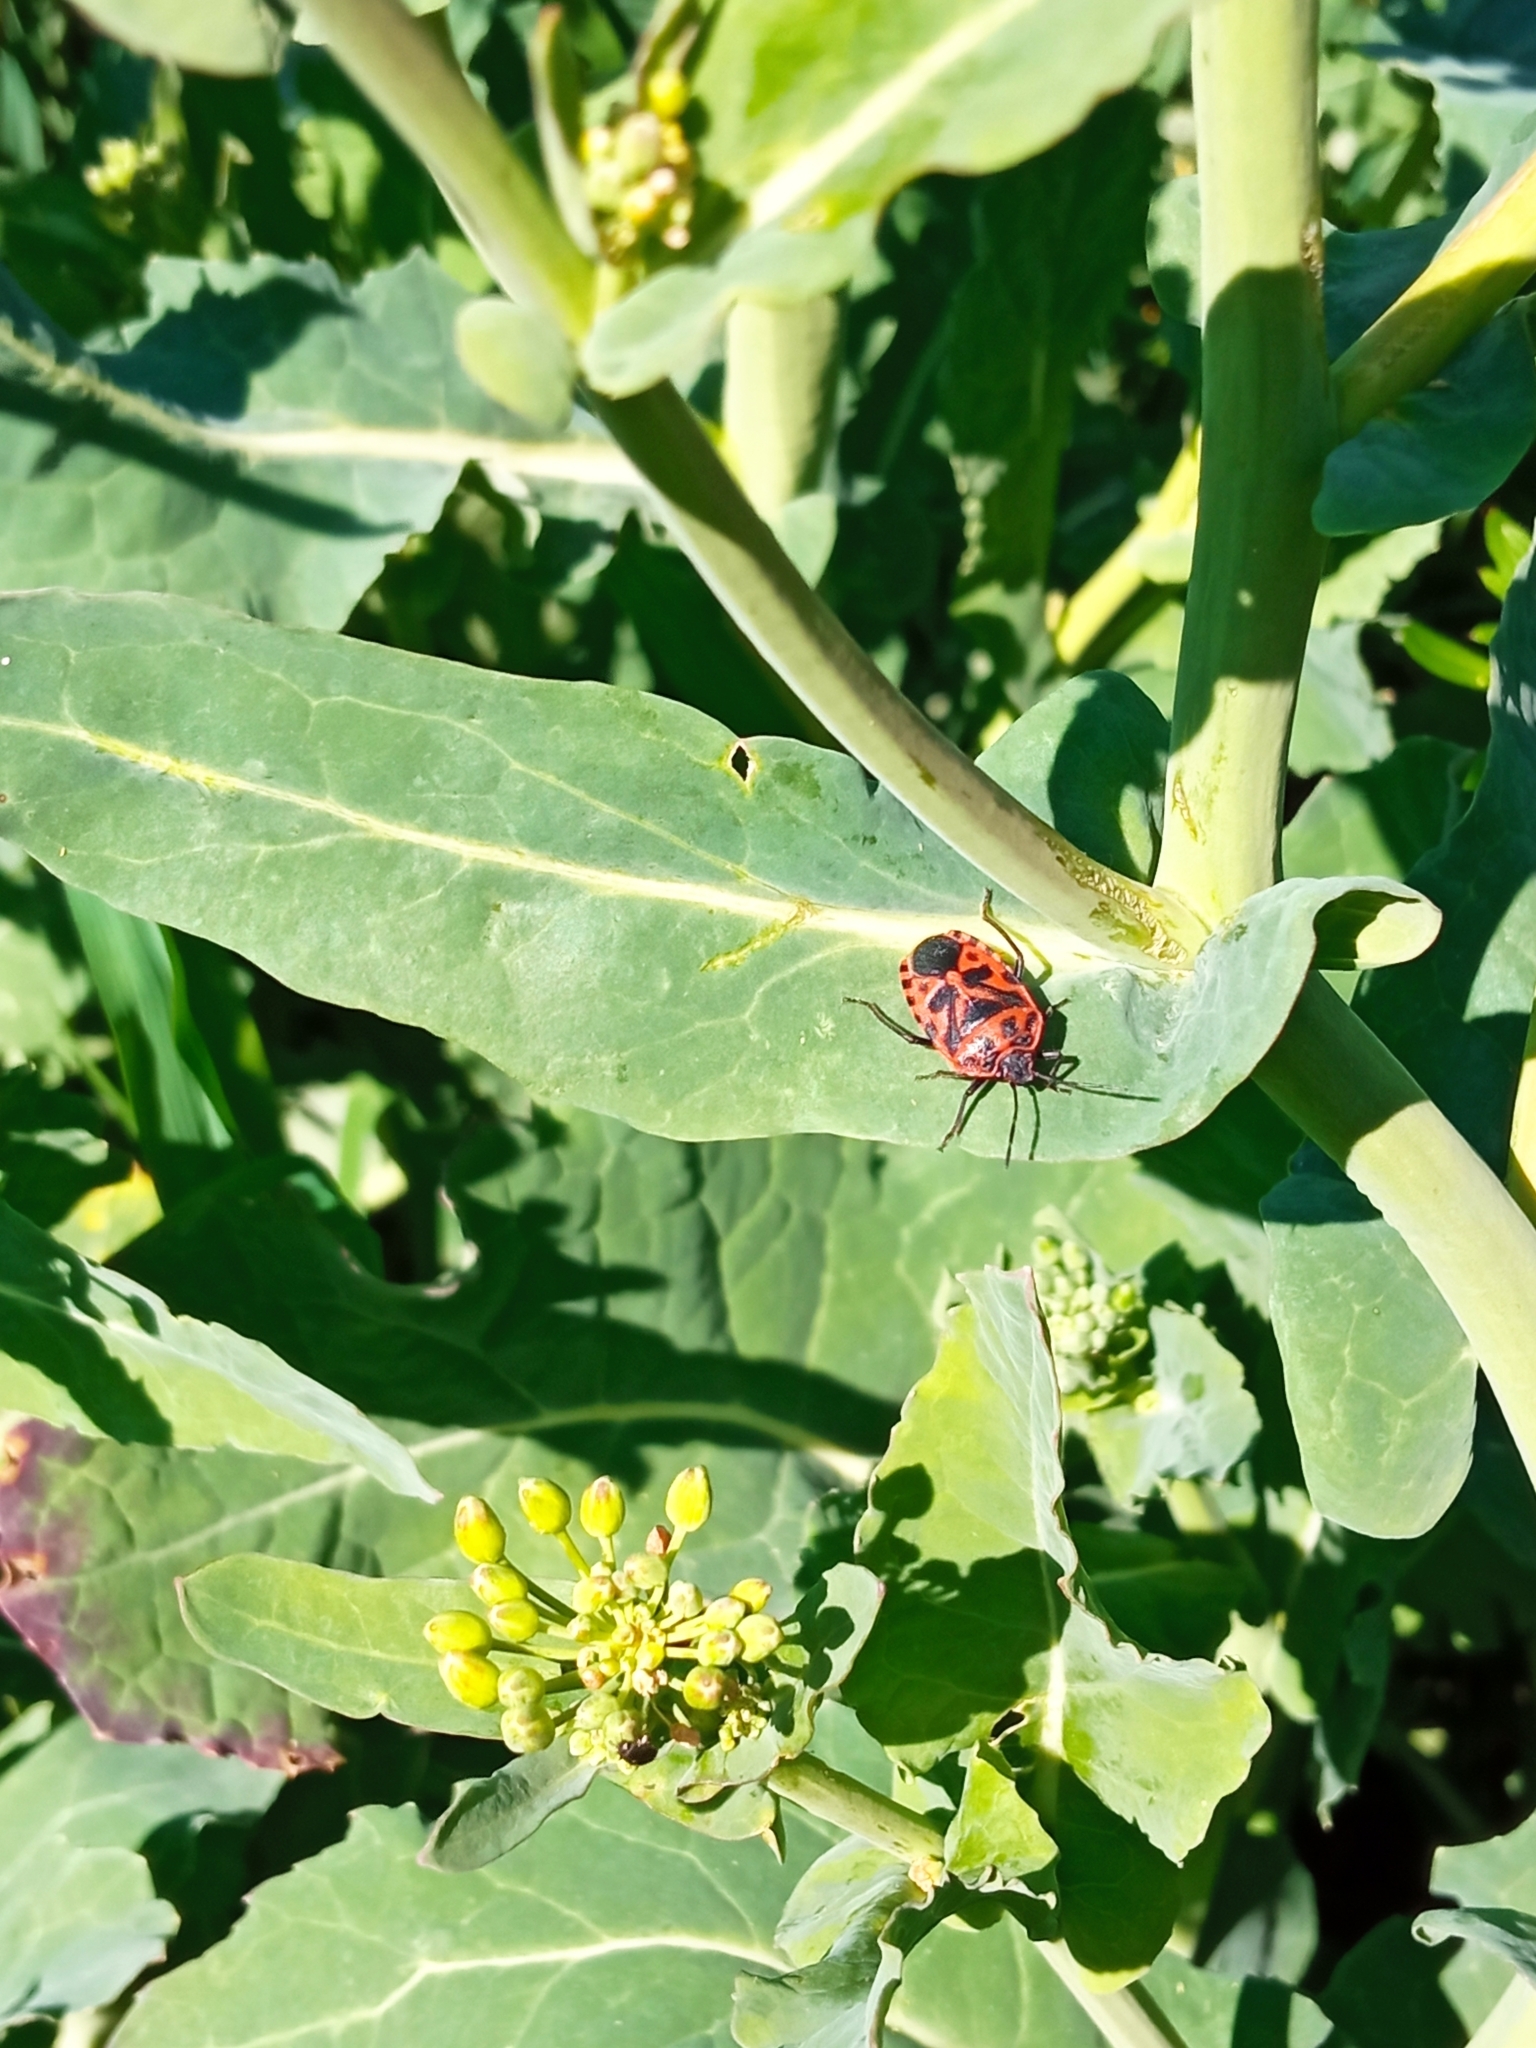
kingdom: Animalia
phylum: Arthropoda
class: Insecta
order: Hemiptera
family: Pentatomidae
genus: Eurydema
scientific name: Eurydema ventralis
